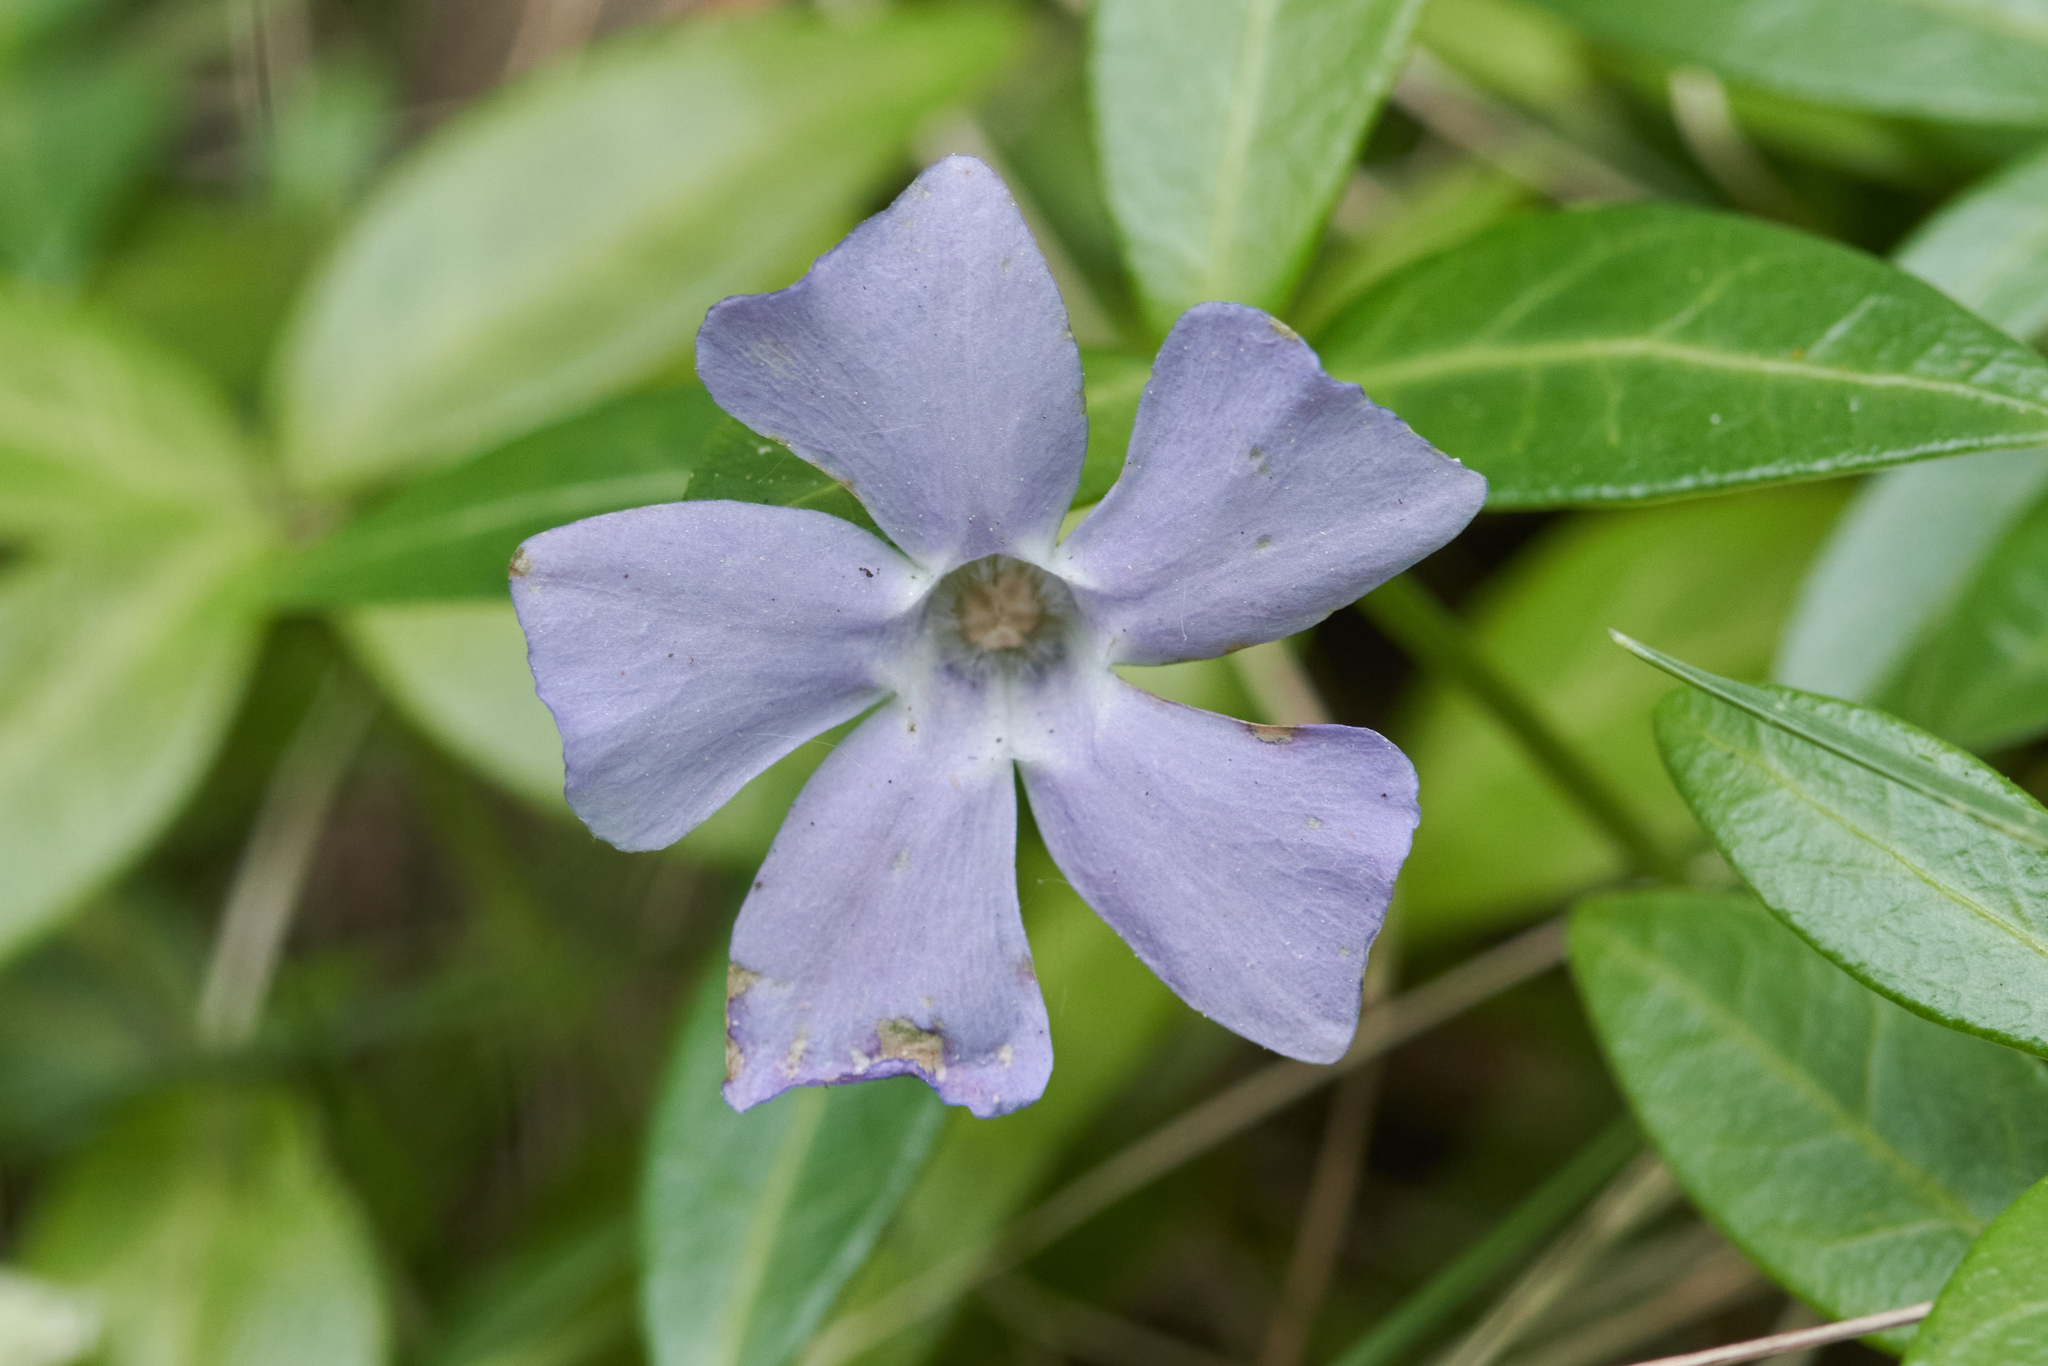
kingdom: Plantae
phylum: Tracheophyta
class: Magnoliopsida
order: Gentianales
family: Apocynaceae
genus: Vinca
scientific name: Vinca minor
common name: Lesser periwinkle
